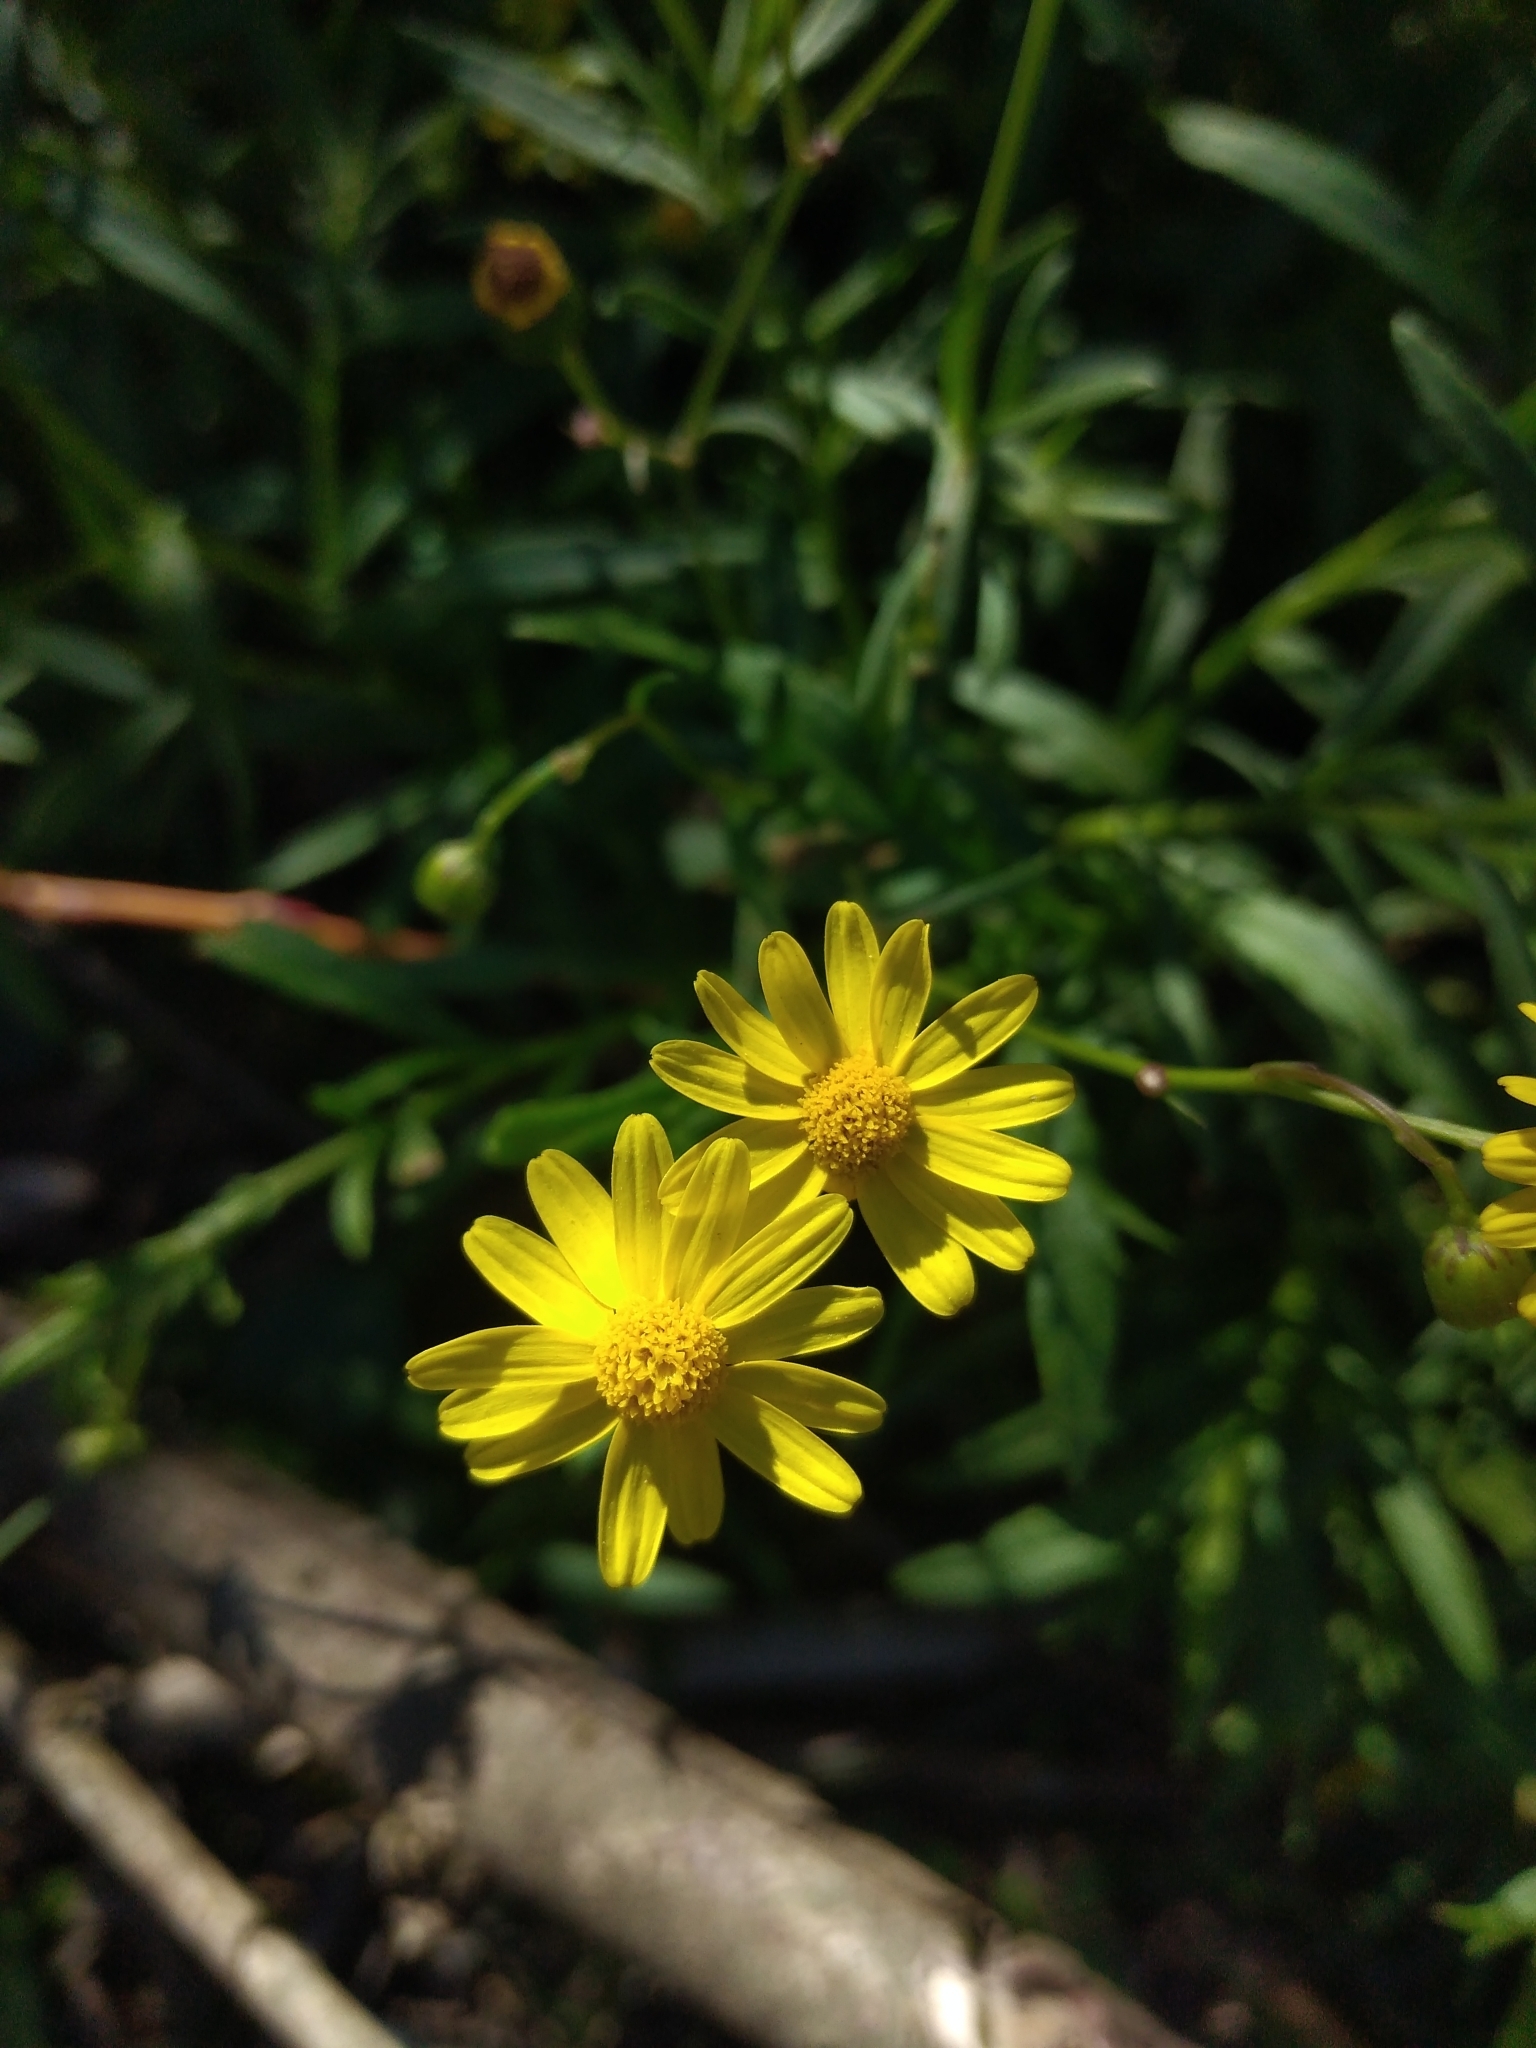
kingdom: Plantae
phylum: Tracheophyta
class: Magnoliopsida
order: Asterales
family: Asteraceae
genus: Senecio
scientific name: Senecio madagascariensis
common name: Madagascar ragwort
